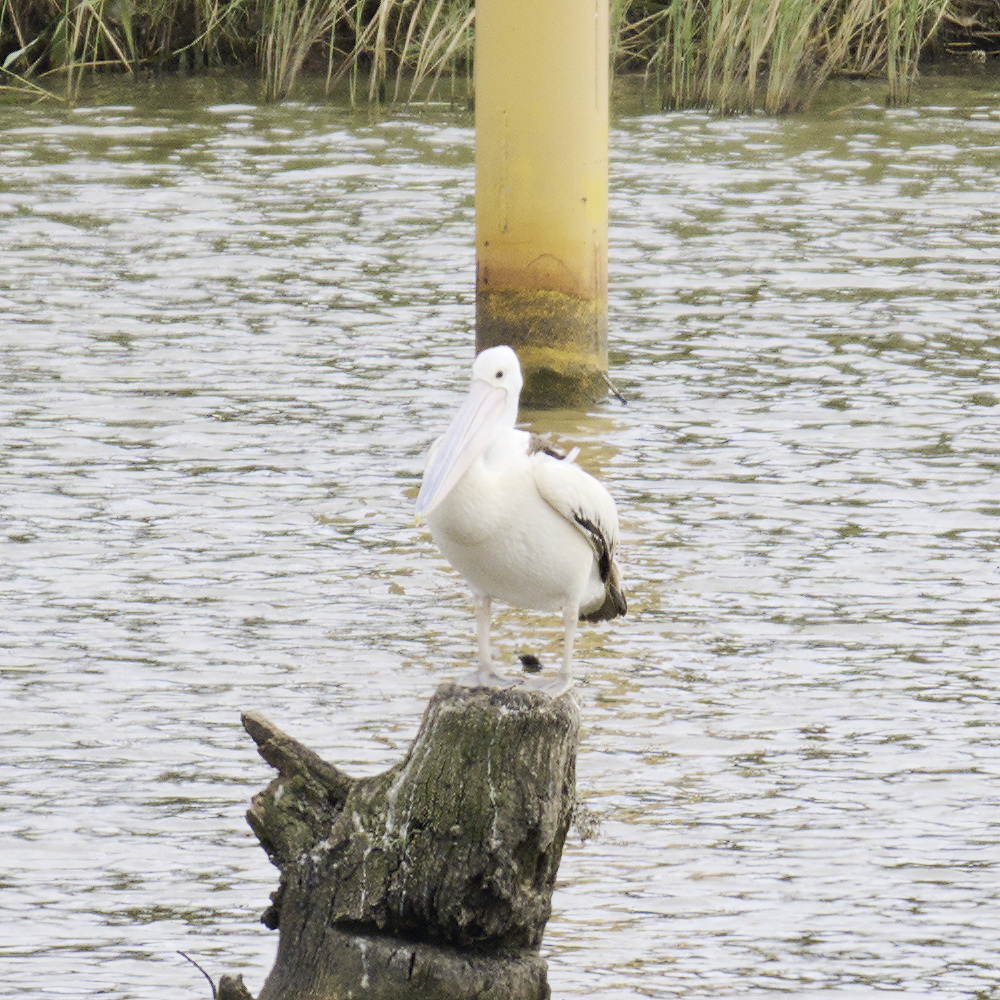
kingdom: Animalia
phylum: Chordata
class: Aves
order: Pelecaniformes
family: Pelecanidae
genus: Pelecanus
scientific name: Pelecanus conspicillatus
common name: Australian pelican
